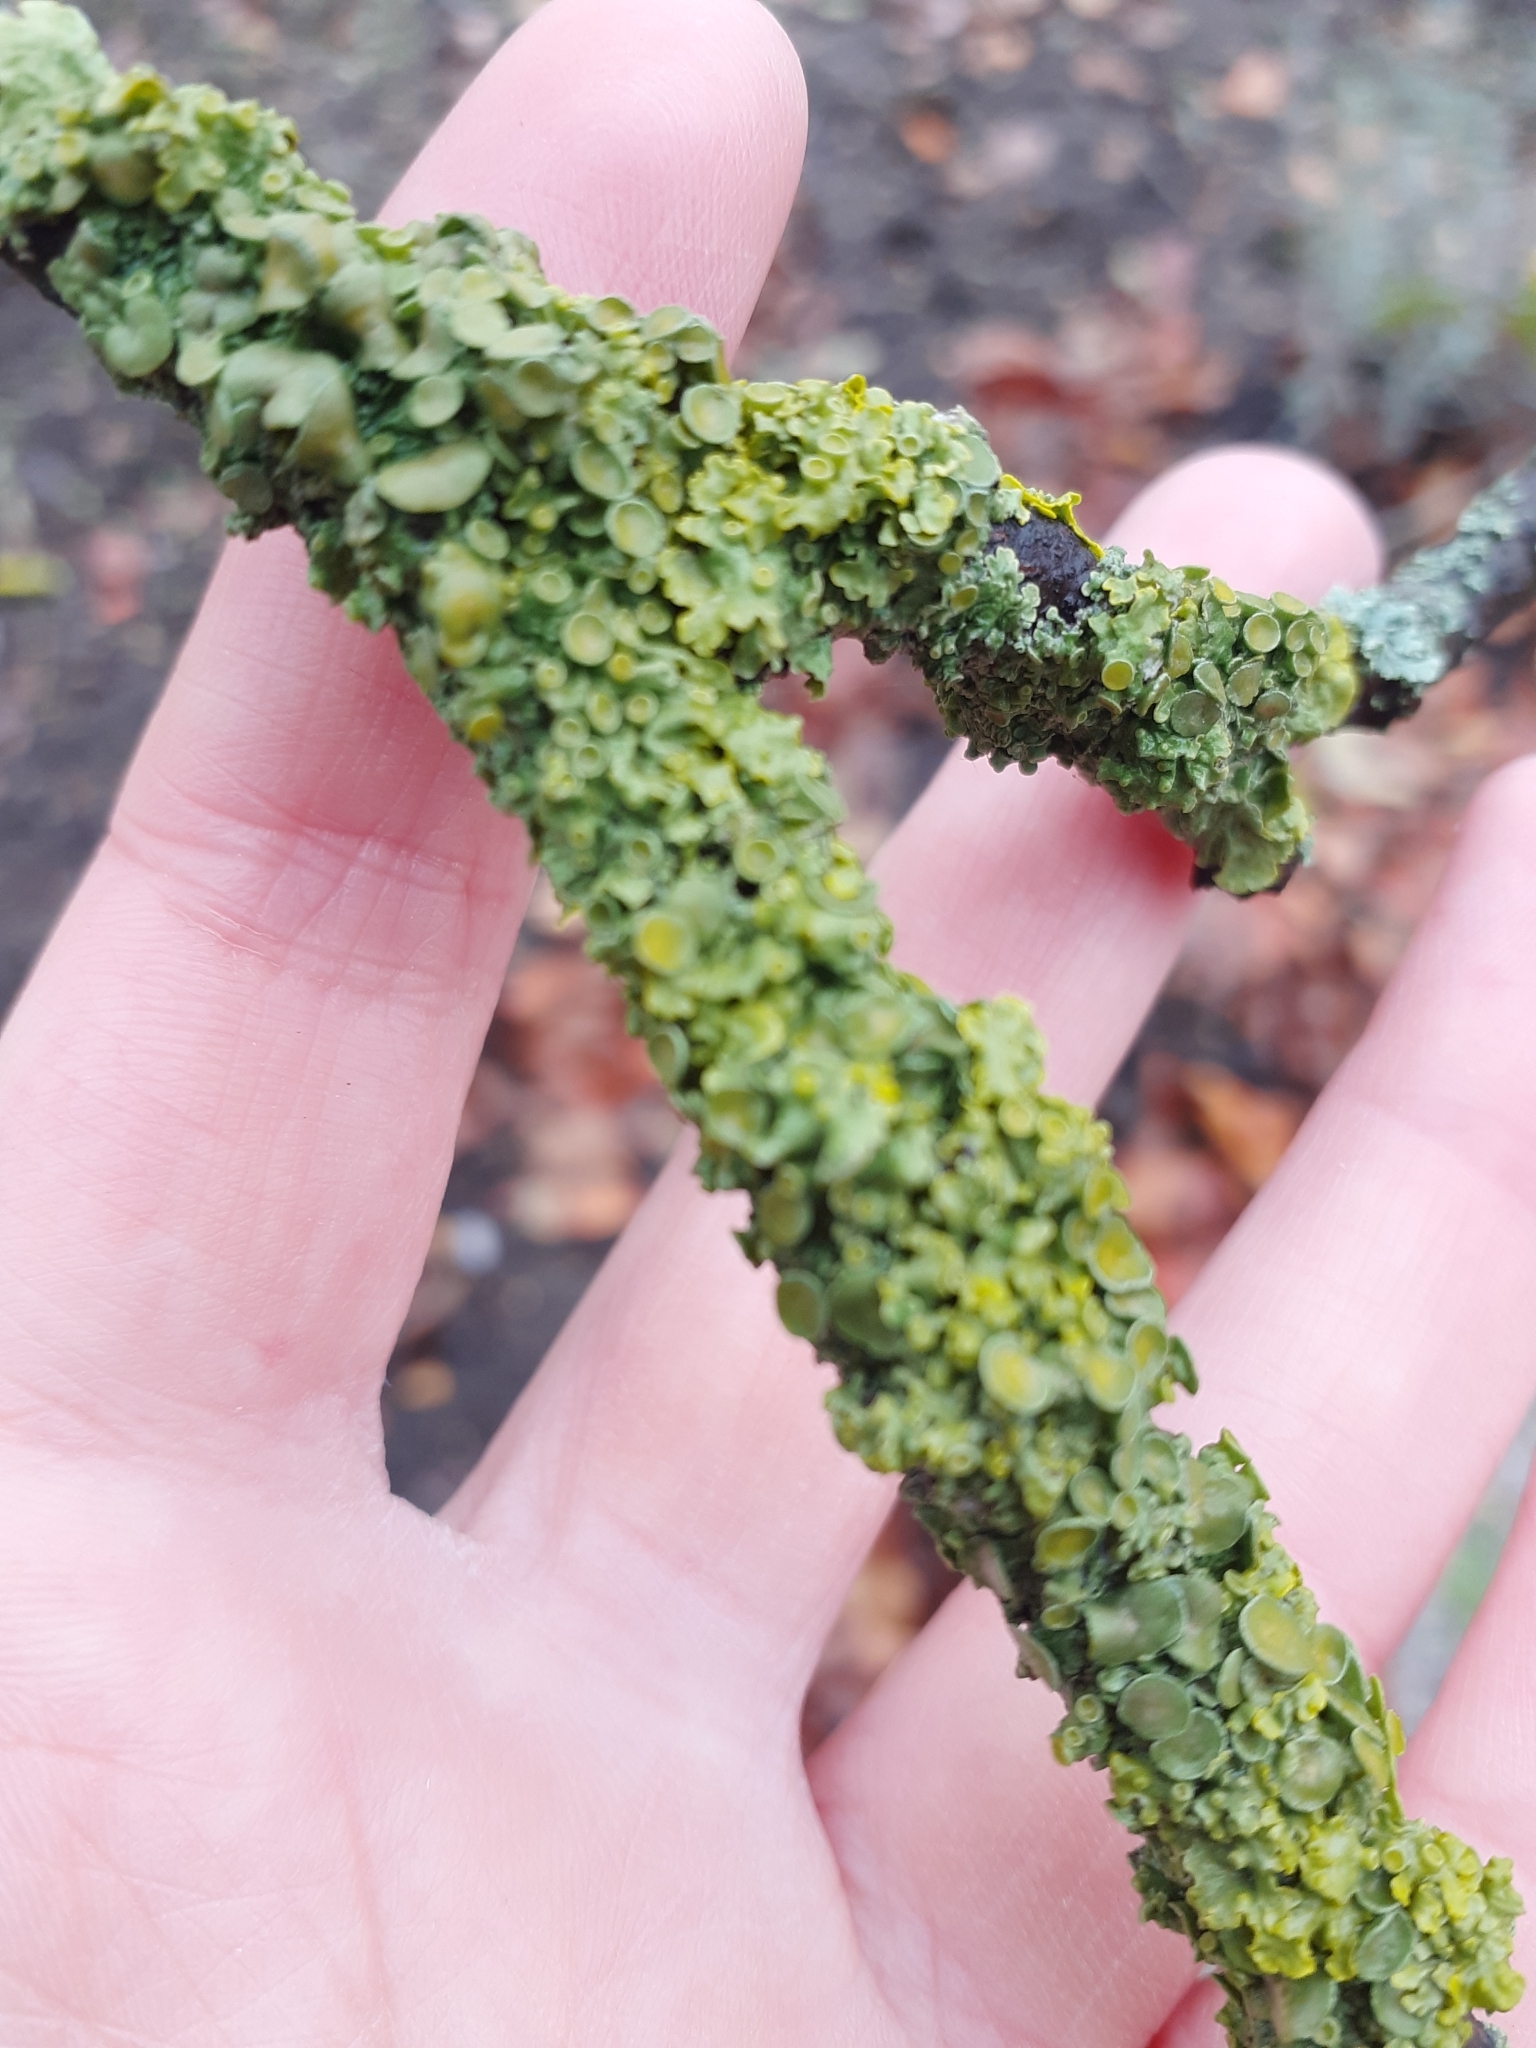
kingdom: Fungi
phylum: Ascomycota
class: Lecanoromycetes
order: Teloschistales
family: Teloschistaceae
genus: Xanthoria
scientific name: Xanthoria parietina
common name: Common orange lichen
